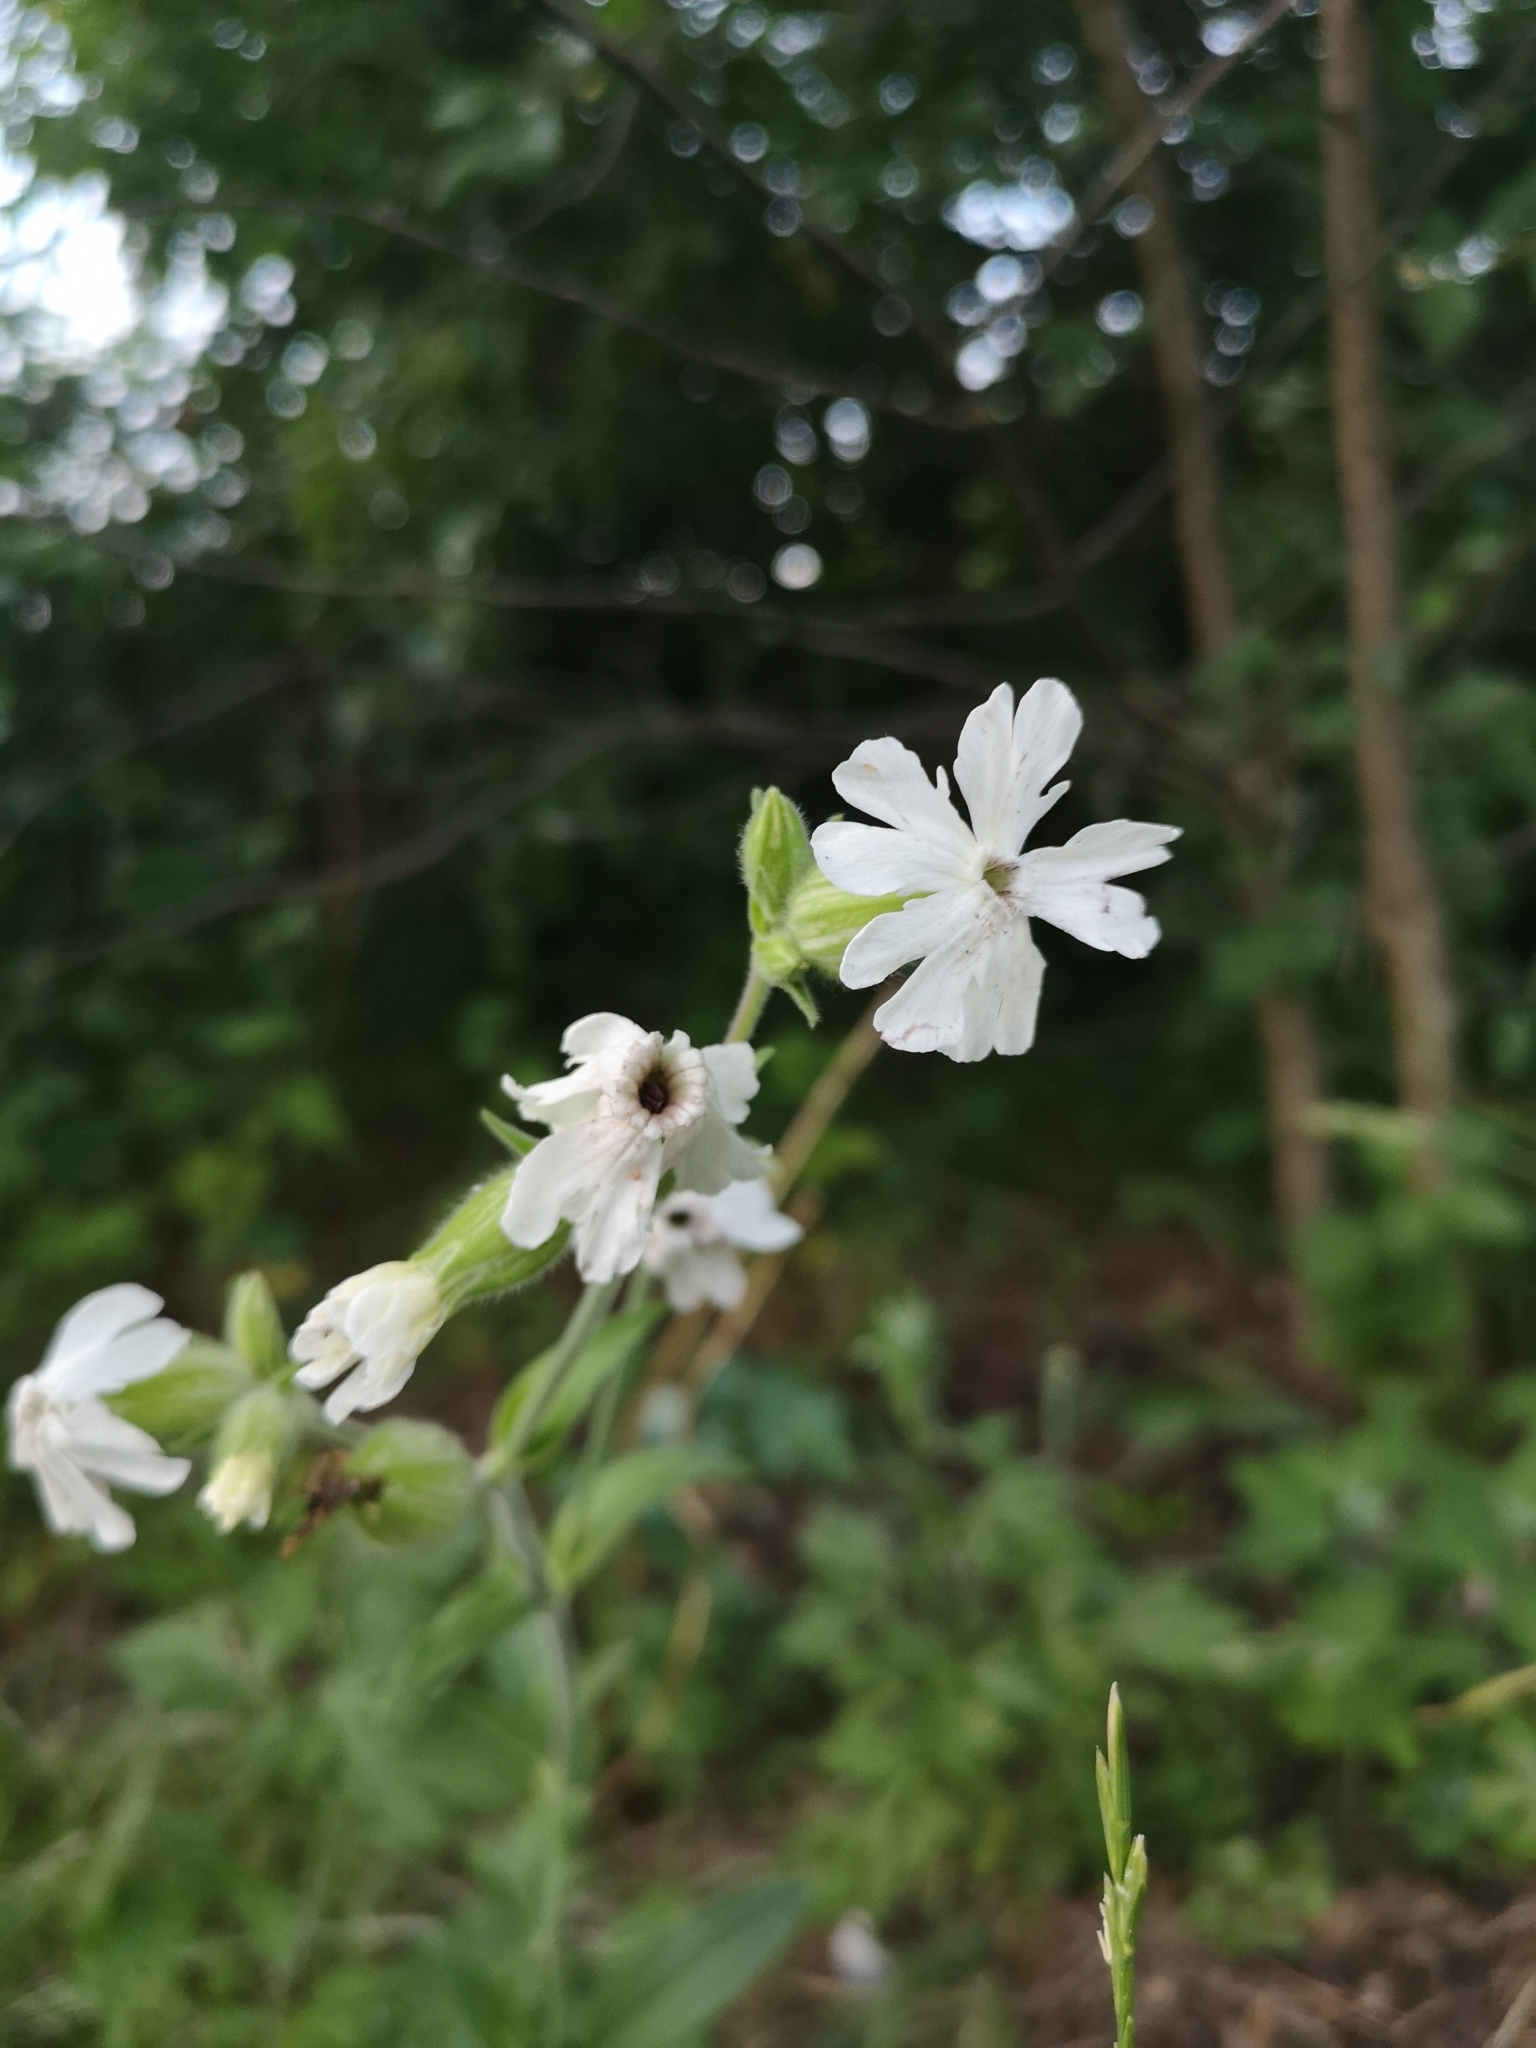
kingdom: Plantae
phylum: Tracheophyta
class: Magnoliopsida
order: Caryophyllales
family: Caryophyllaceae
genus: Silene
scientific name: Silene latifolia
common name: White campion
